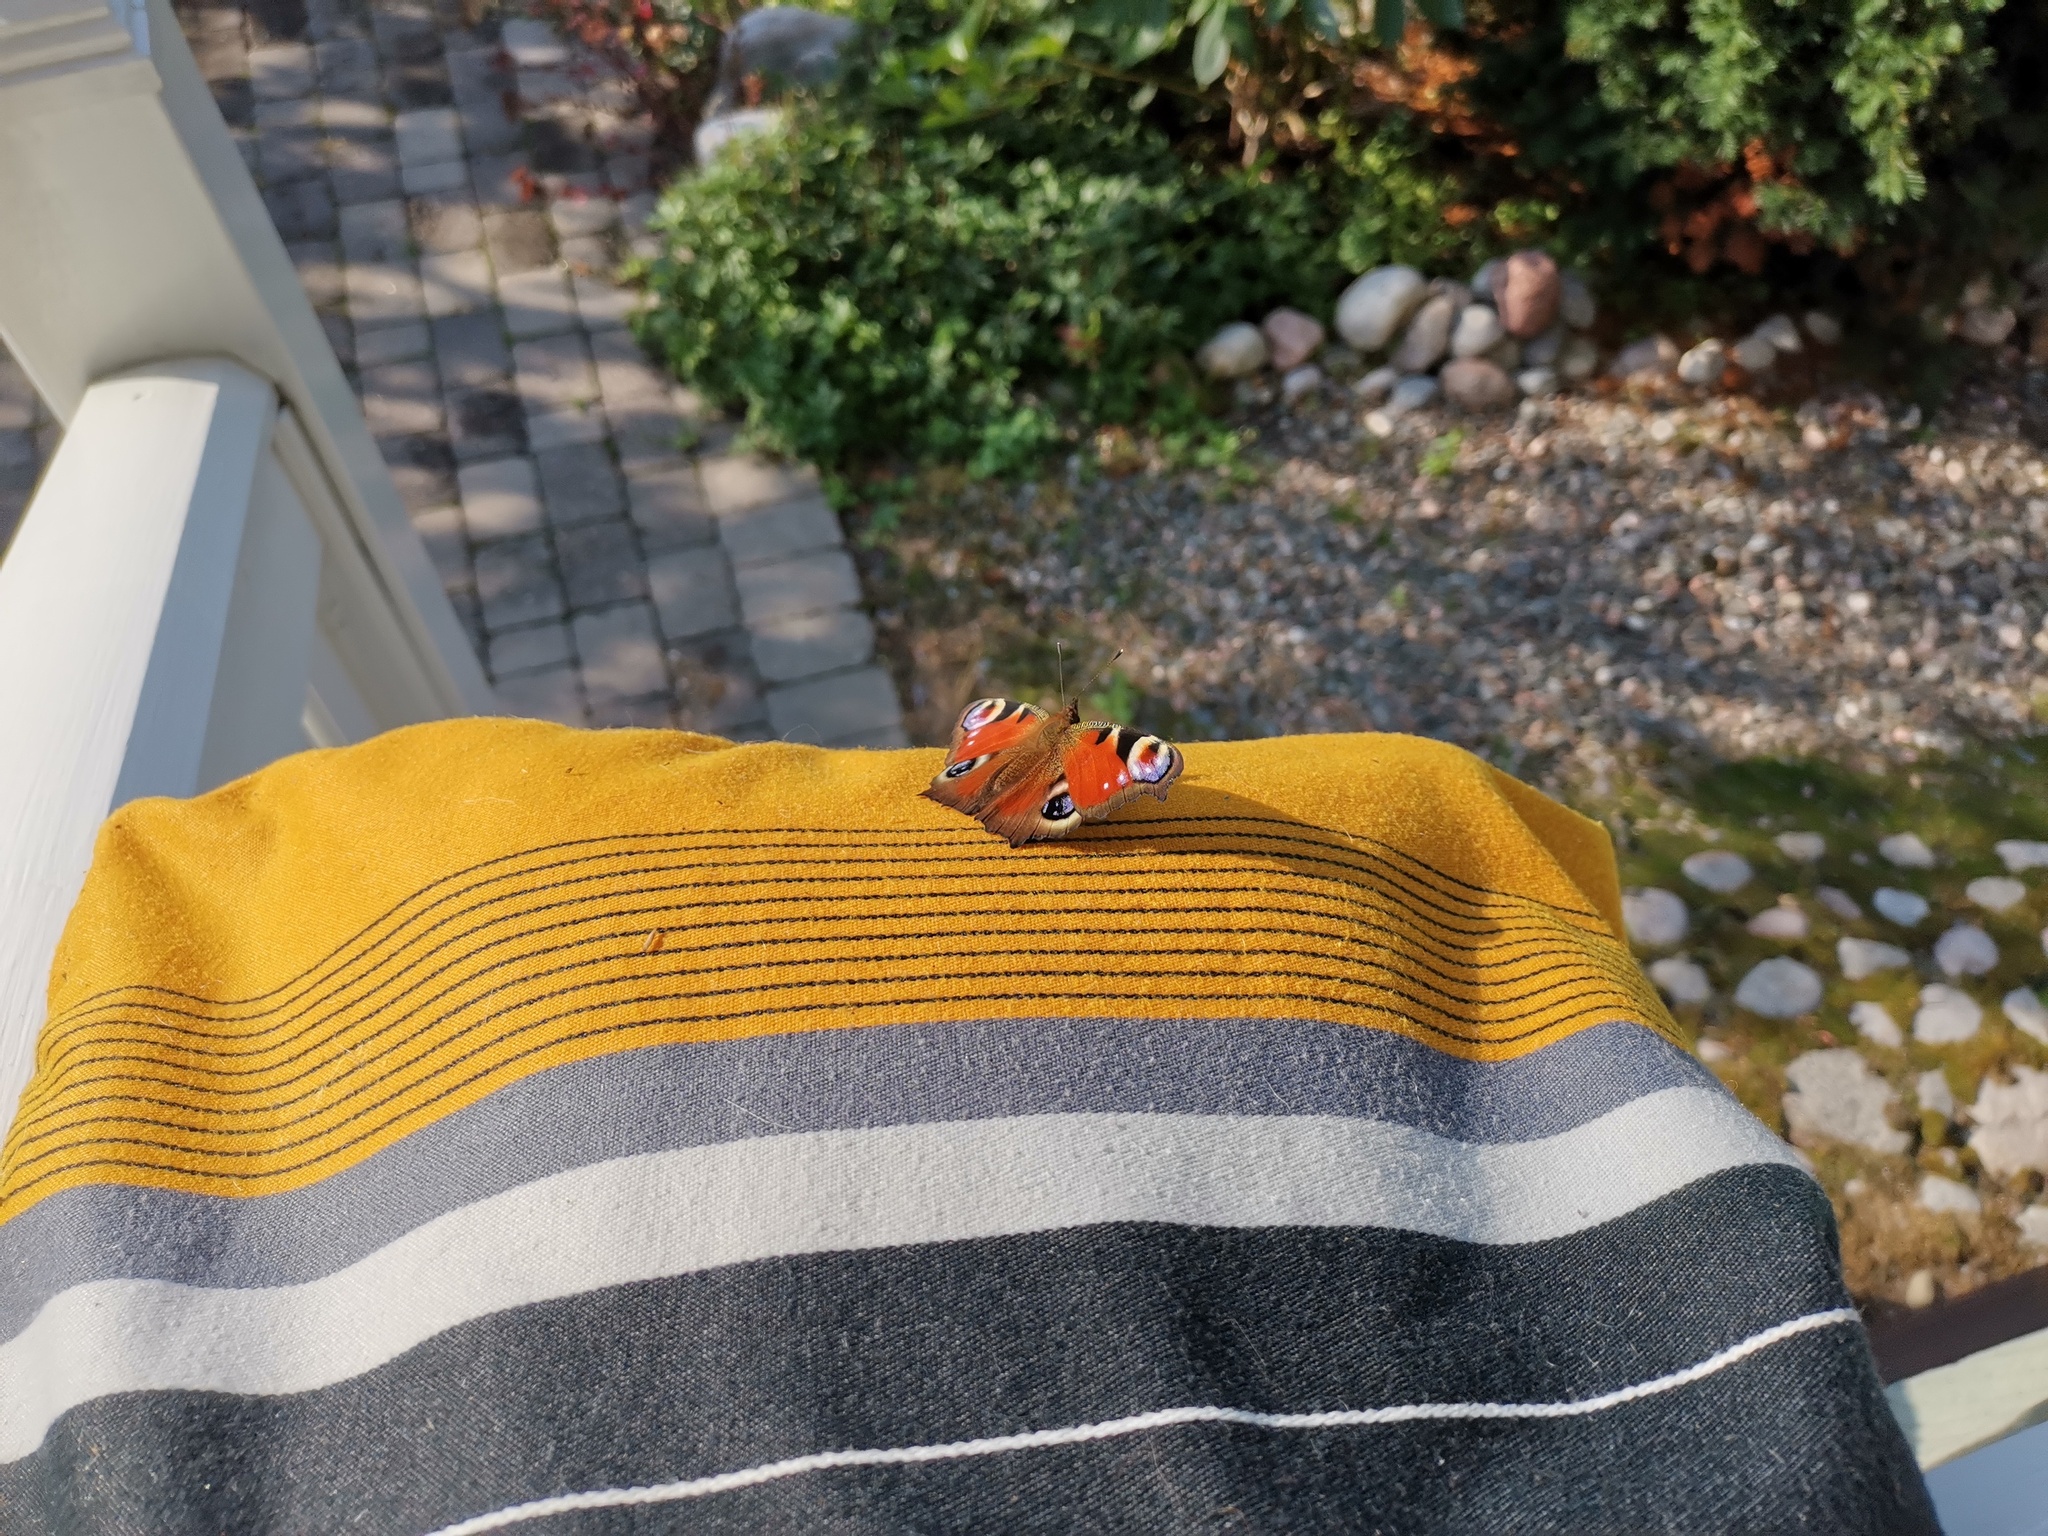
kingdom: Animalia
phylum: Arthropoda
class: Insecta
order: Lepidoptera
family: Nymphalidae
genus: Aglais
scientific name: Aglais io
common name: Peacock
